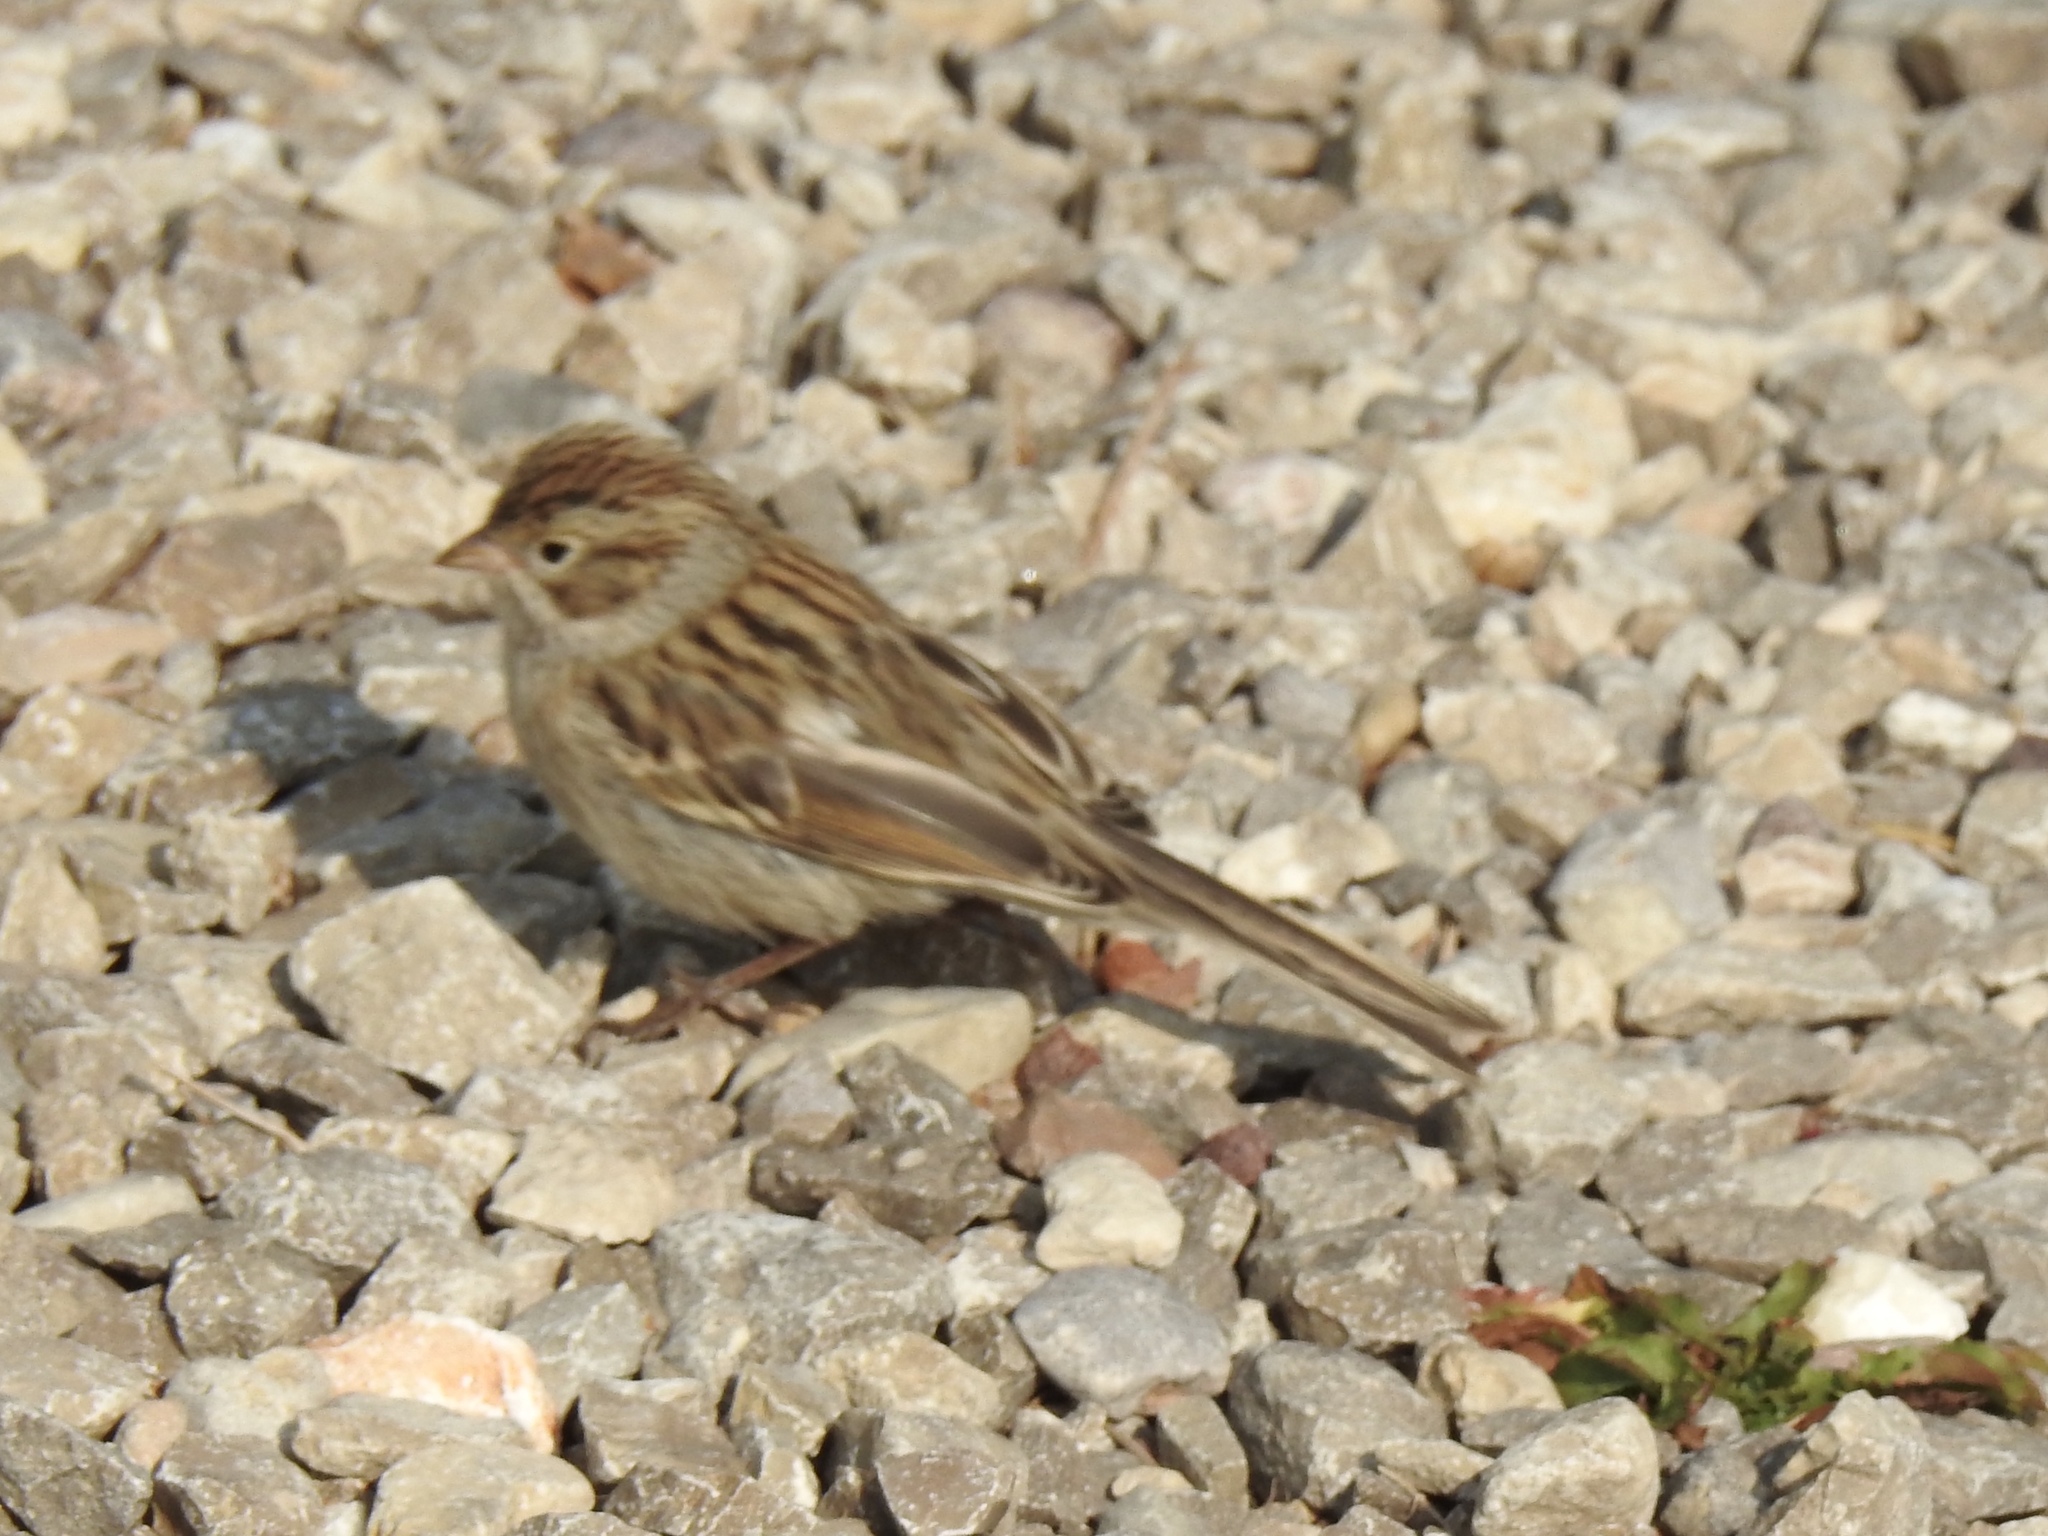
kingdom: Animalia
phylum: Chordata
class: Aves
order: Passeriformes
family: Passerellidae
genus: Spizella
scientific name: Spizella breweri
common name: Brewer's sparrow
